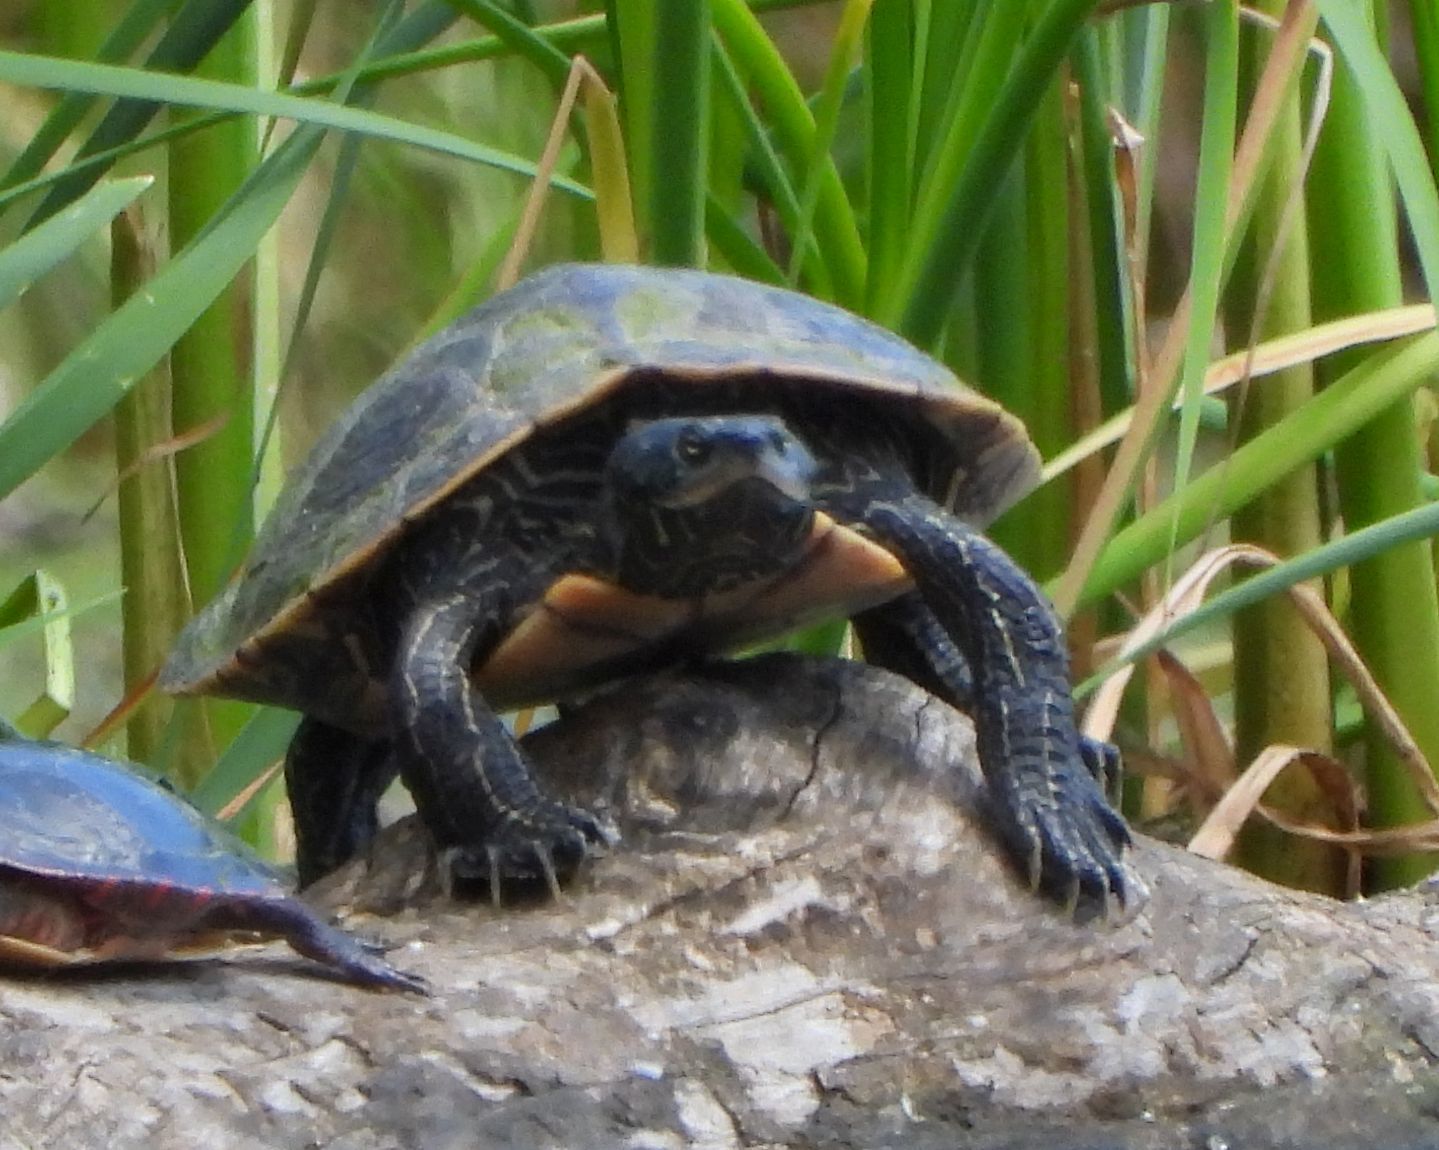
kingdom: Animalia
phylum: Chordata
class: Testudines
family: Emydidae
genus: Graptemys
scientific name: Graptemys geographica
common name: Common map turtle
